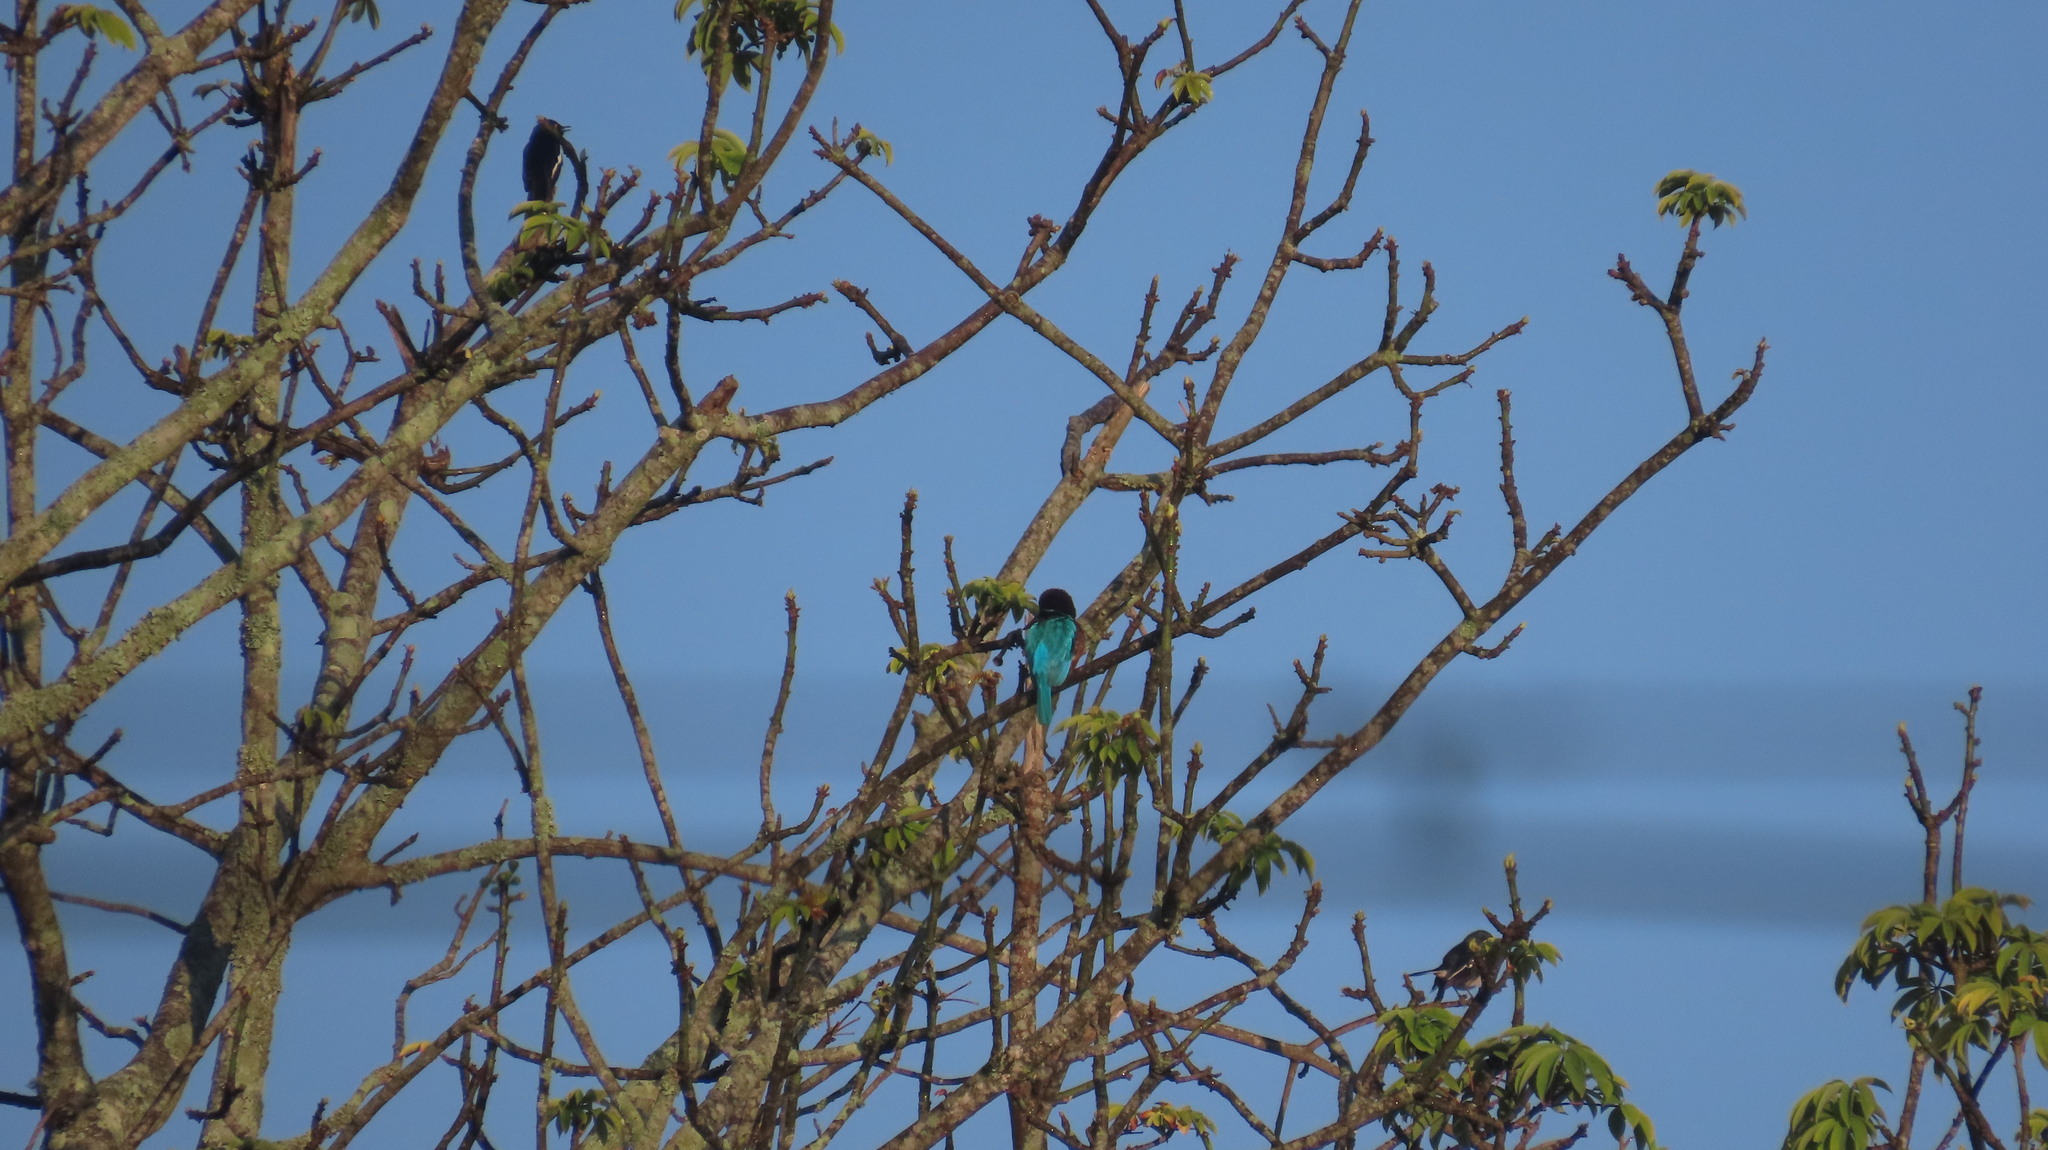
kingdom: Animalia
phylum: Chordata
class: Aves
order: Coraciiformes
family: Alcedinidae
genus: Halcyon
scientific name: Halcyon smyrnensis
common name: White-throated kingfisher
